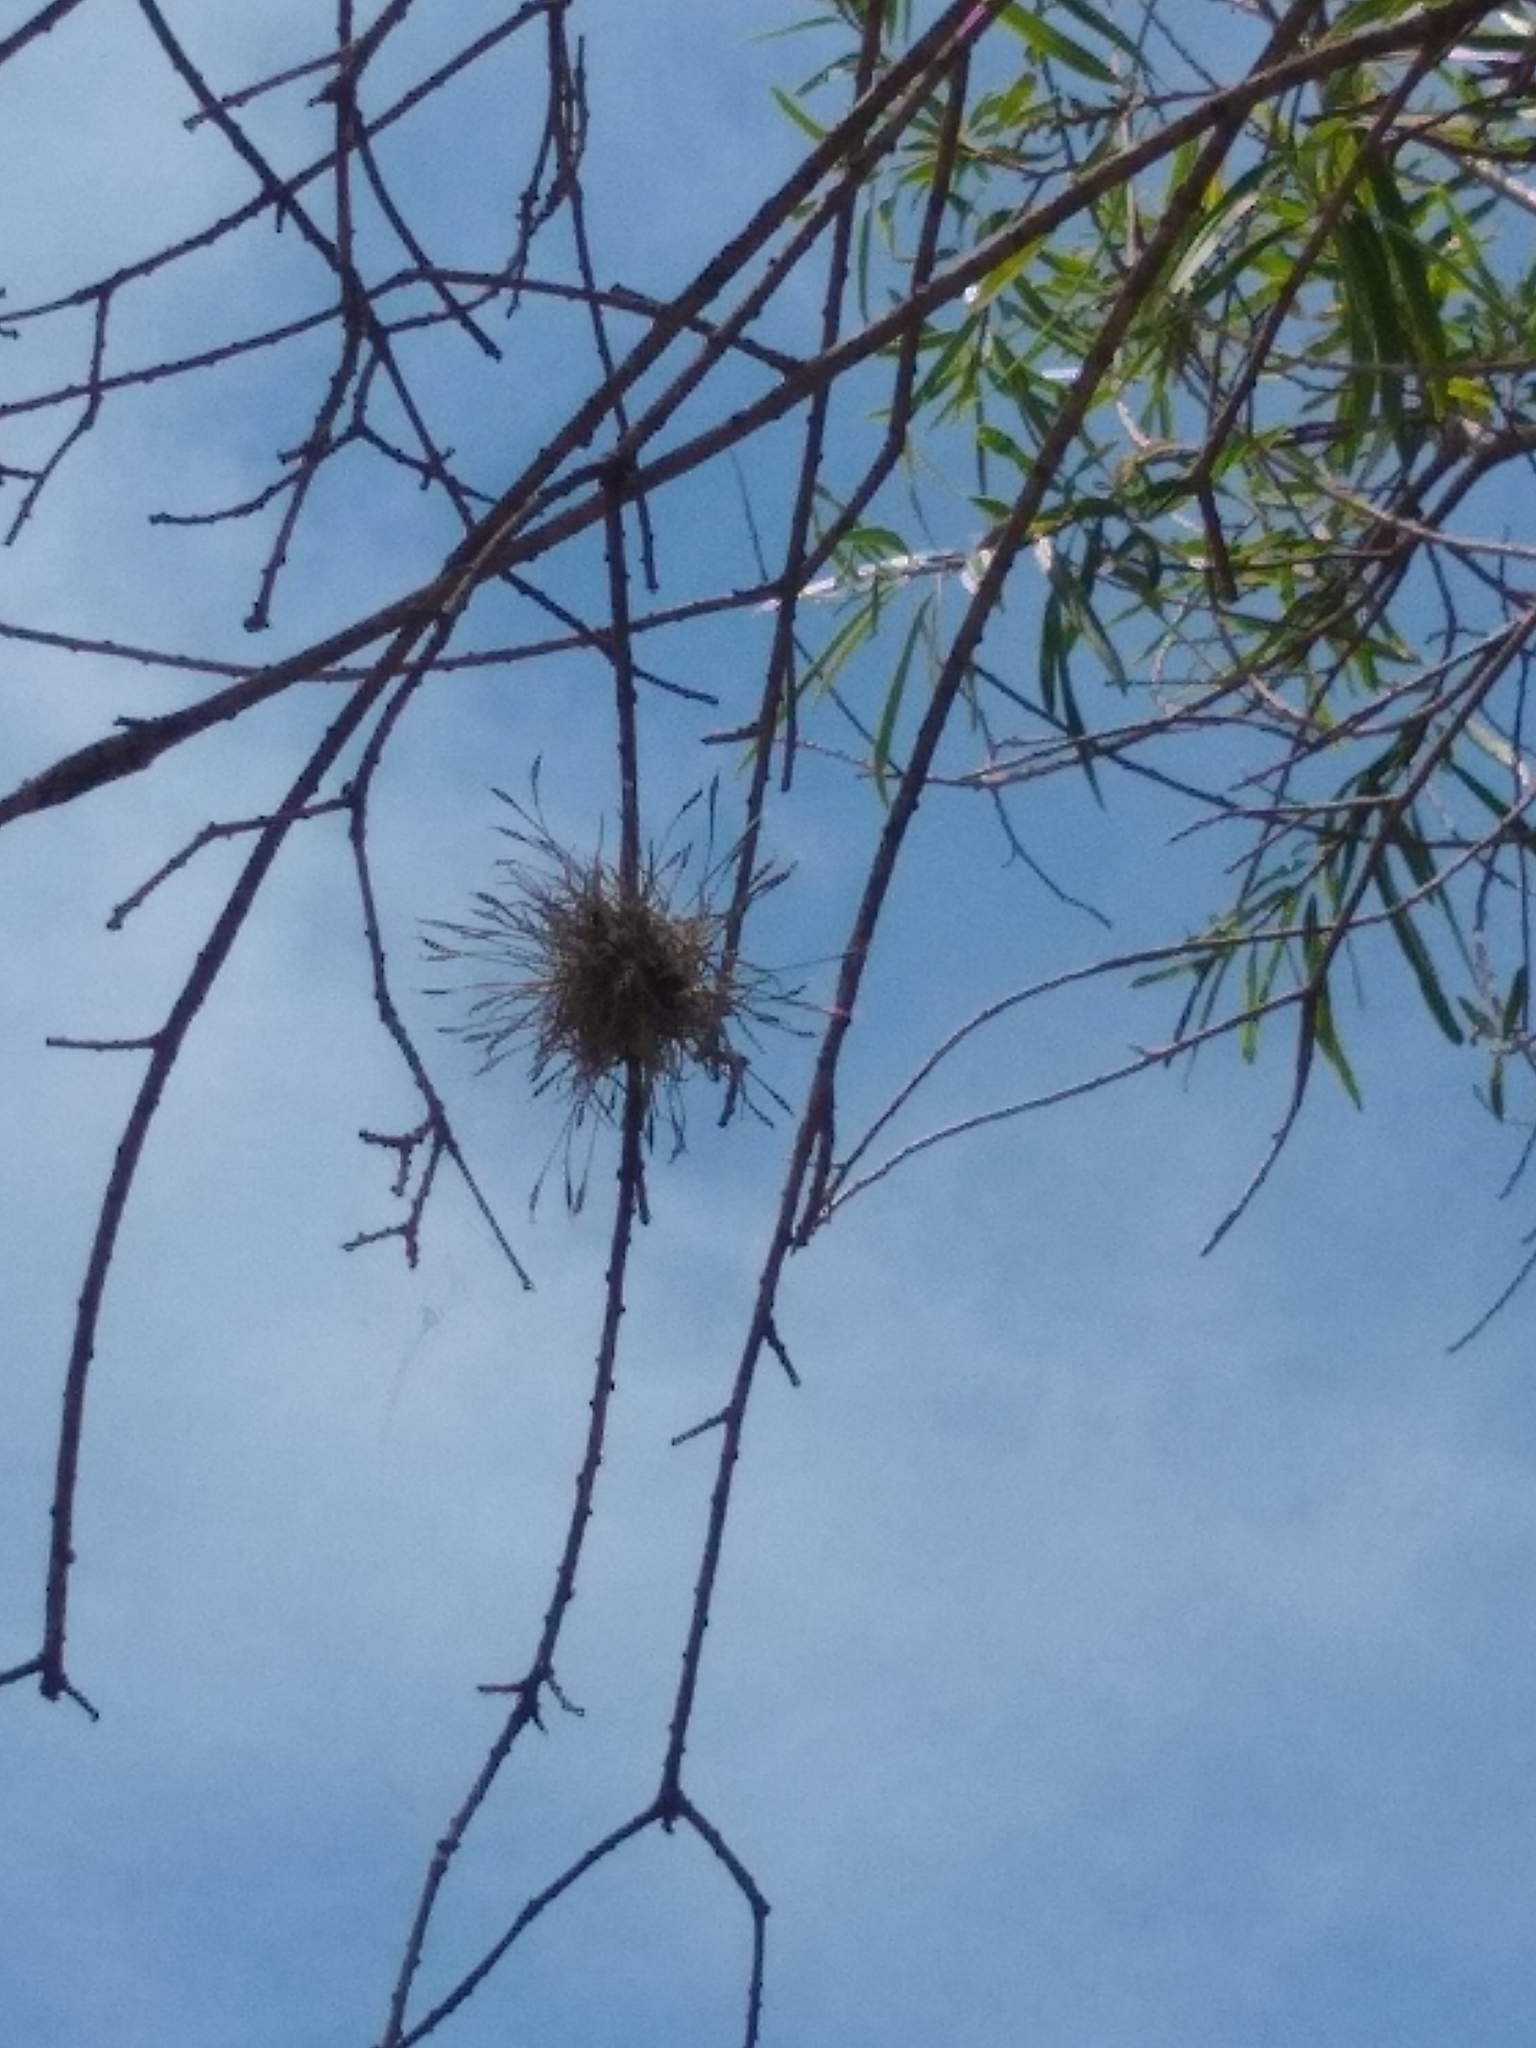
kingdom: Plantae
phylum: Tracheophyta
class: Liliopsida
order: Poales
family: Bromeliaceae
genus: Tillandsia
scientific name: Tillandsia recurvata
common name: Small ballmoss
